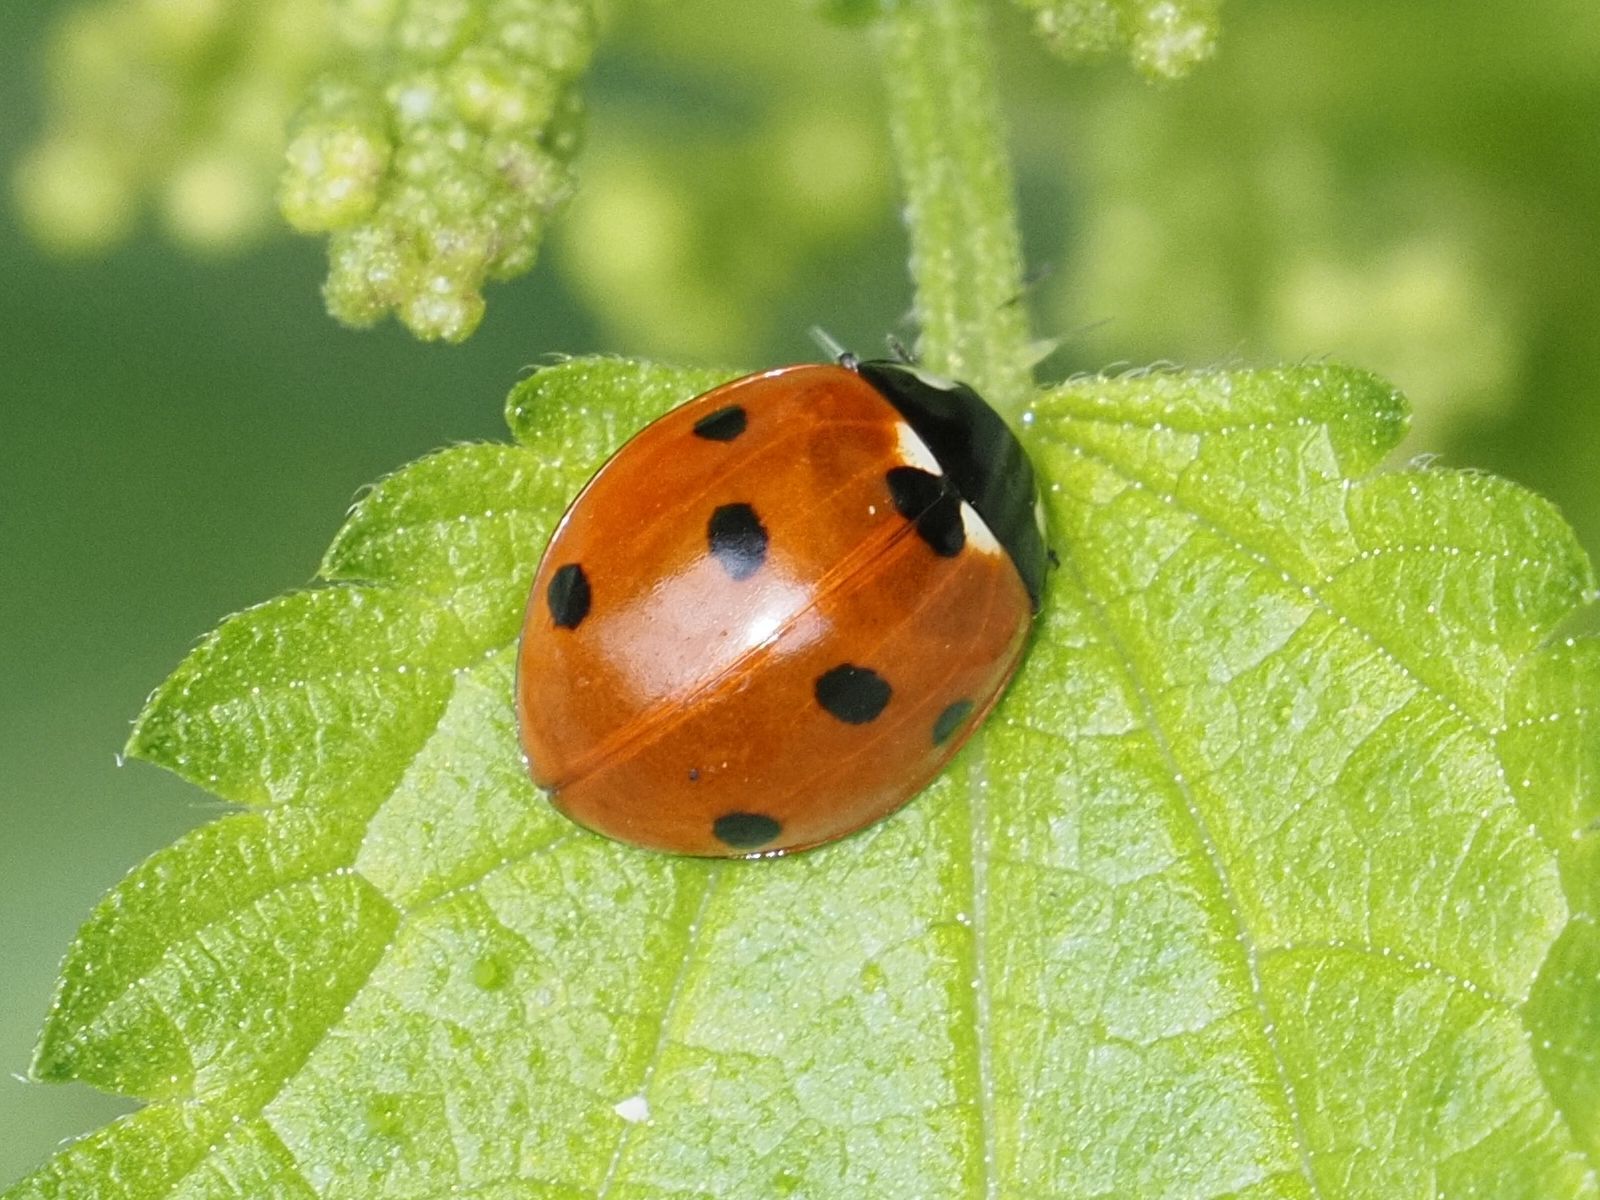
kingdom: Animalia
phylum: Arthropoda
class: Insecta
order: Coleoptera
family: Coccinellidae
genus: Coccinella
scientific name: Coccinella septempunctata
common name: Sevenspotted lady beetle
